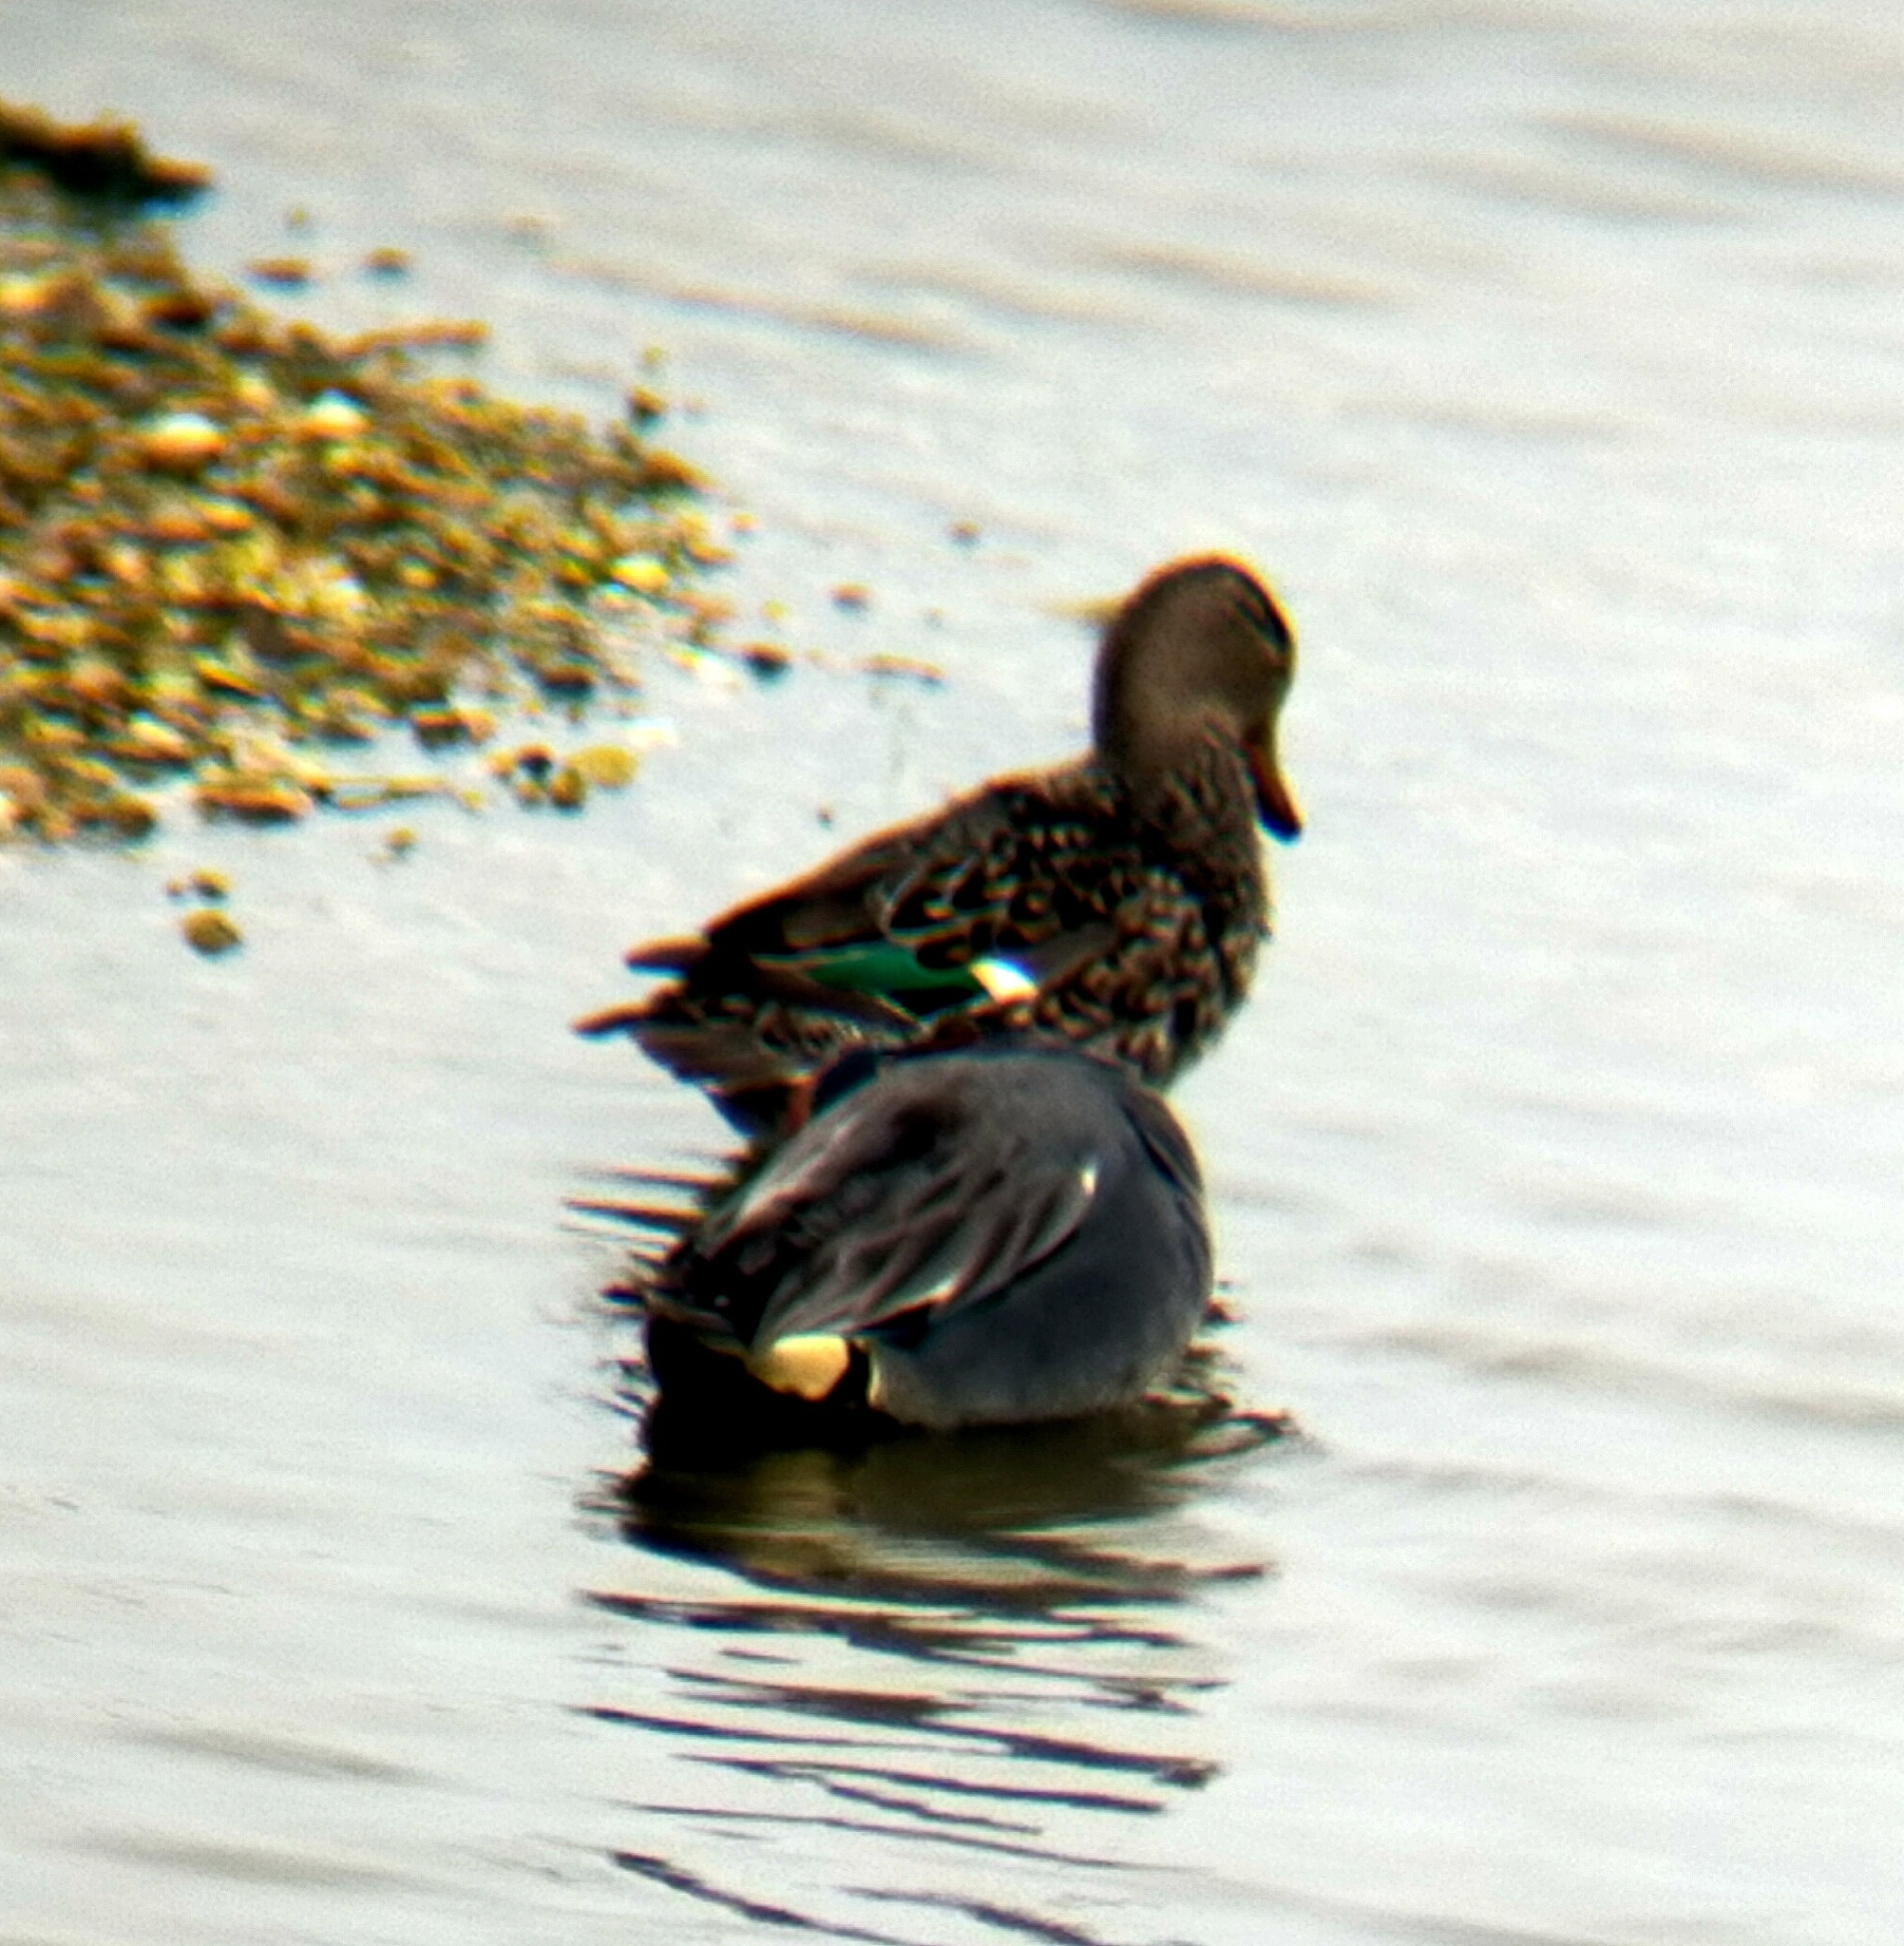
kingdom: Animalia
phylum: Chordata
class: Aves
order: Anseriformes
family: Anatidae
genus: Anas
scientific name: Anas crecca
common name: Eurasian teal
